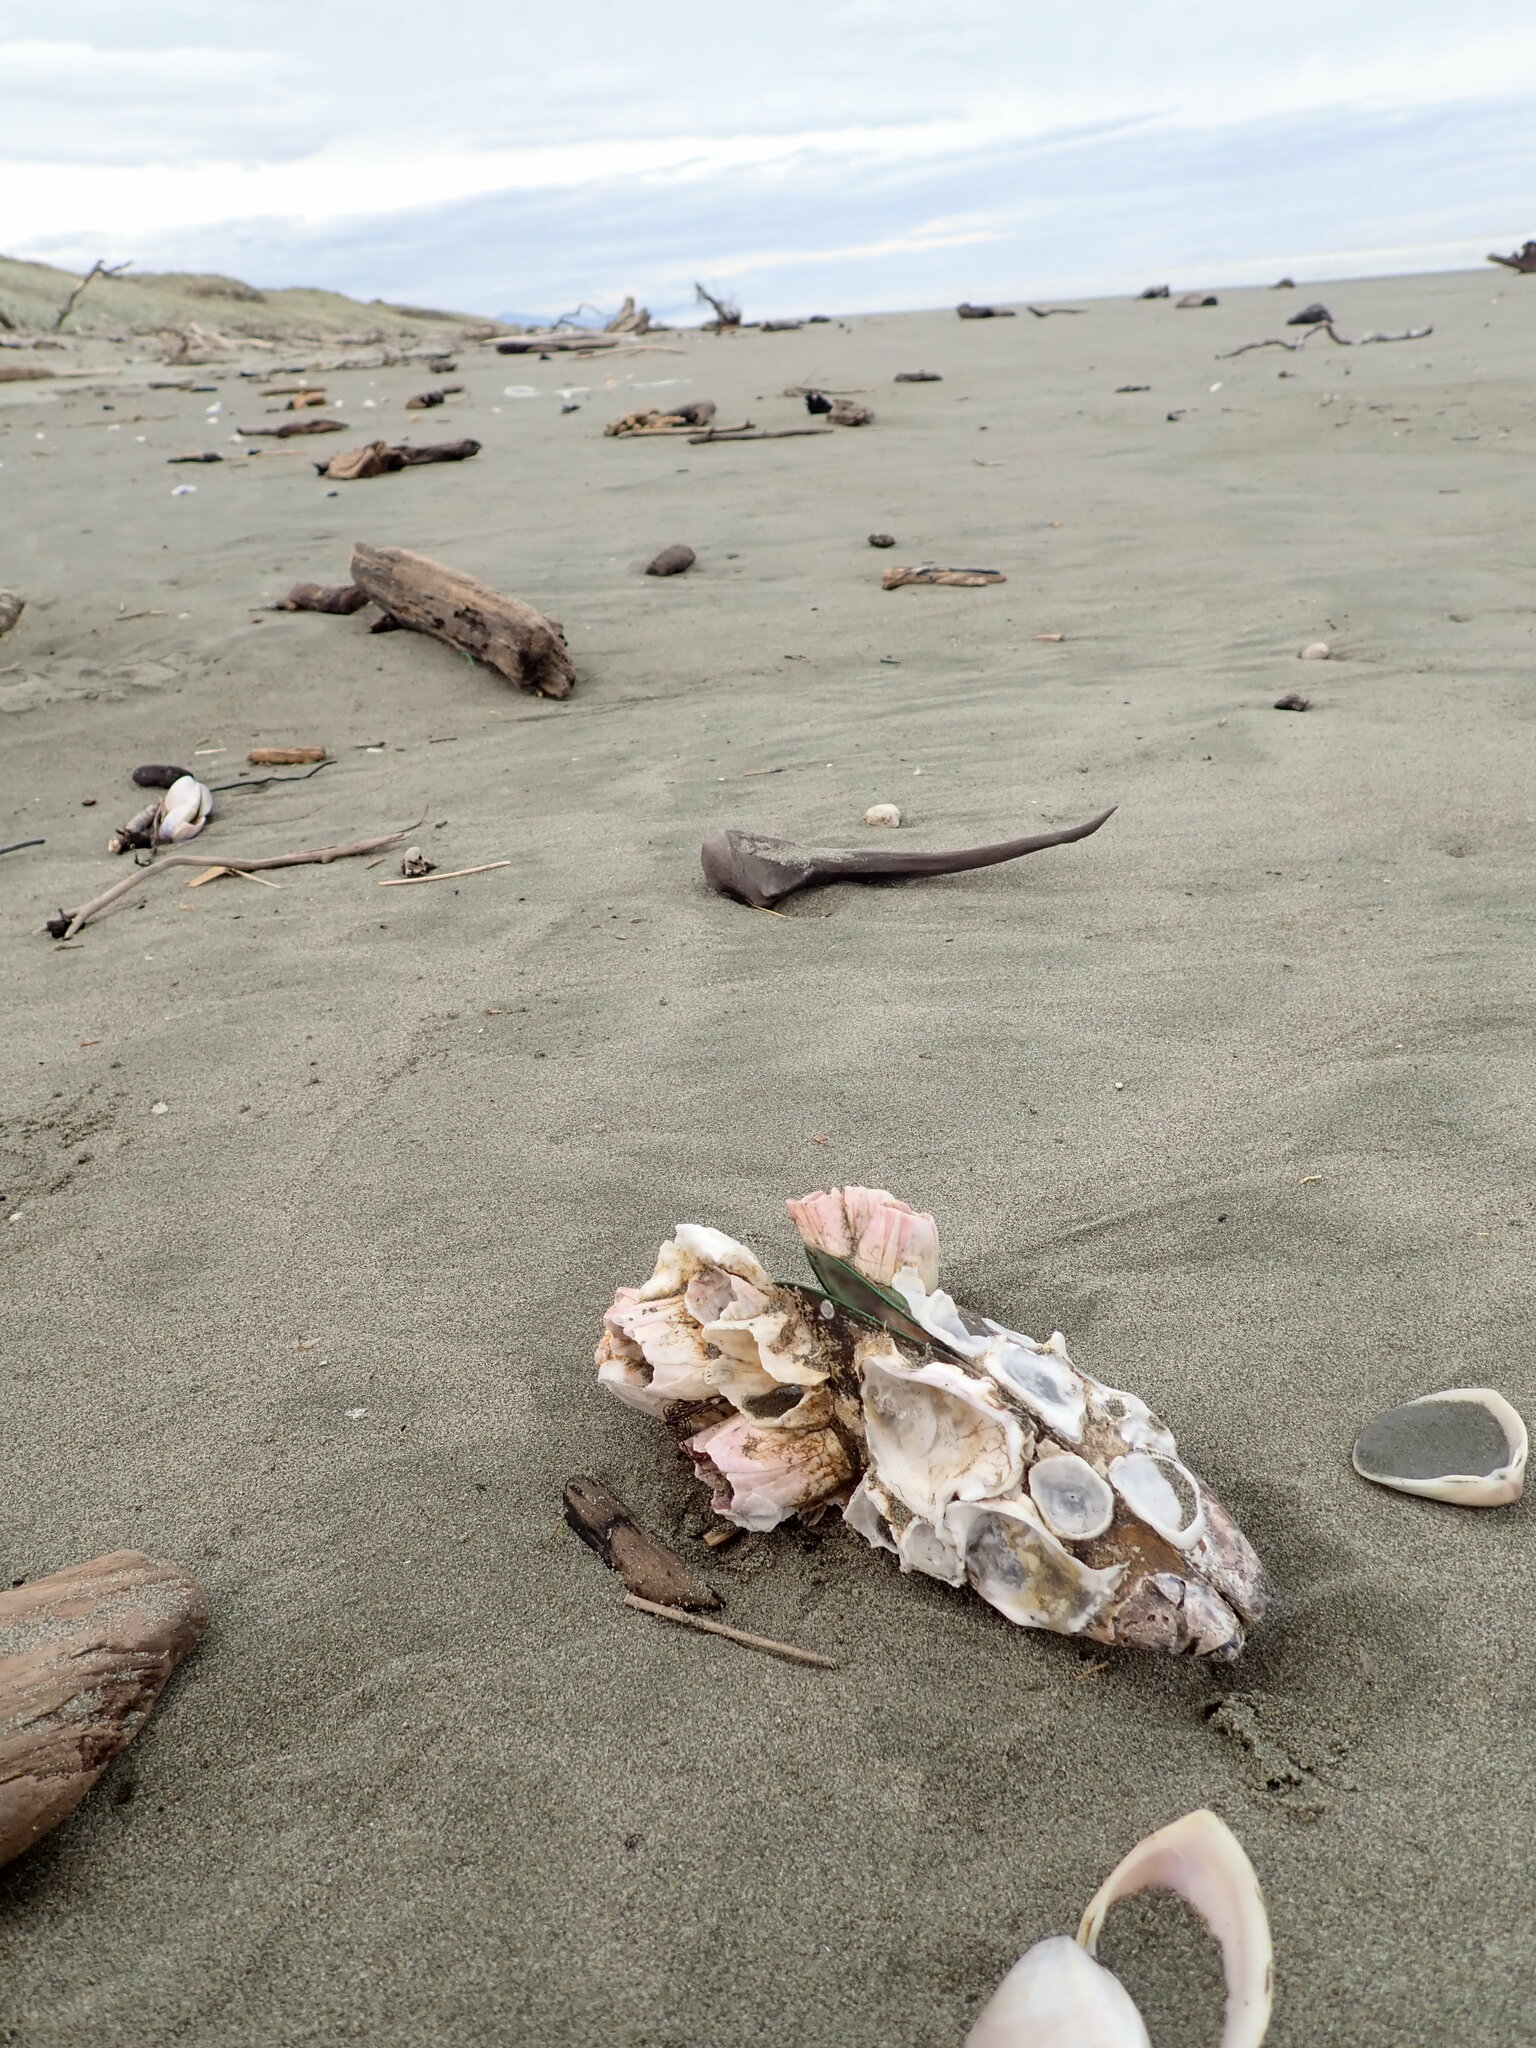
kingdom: Animalia
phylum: Arthropoda
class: Maxillopoda
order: Sessilia
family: Balanidae
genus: Notomegabalanus
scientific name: Notomegabalanus decorus
